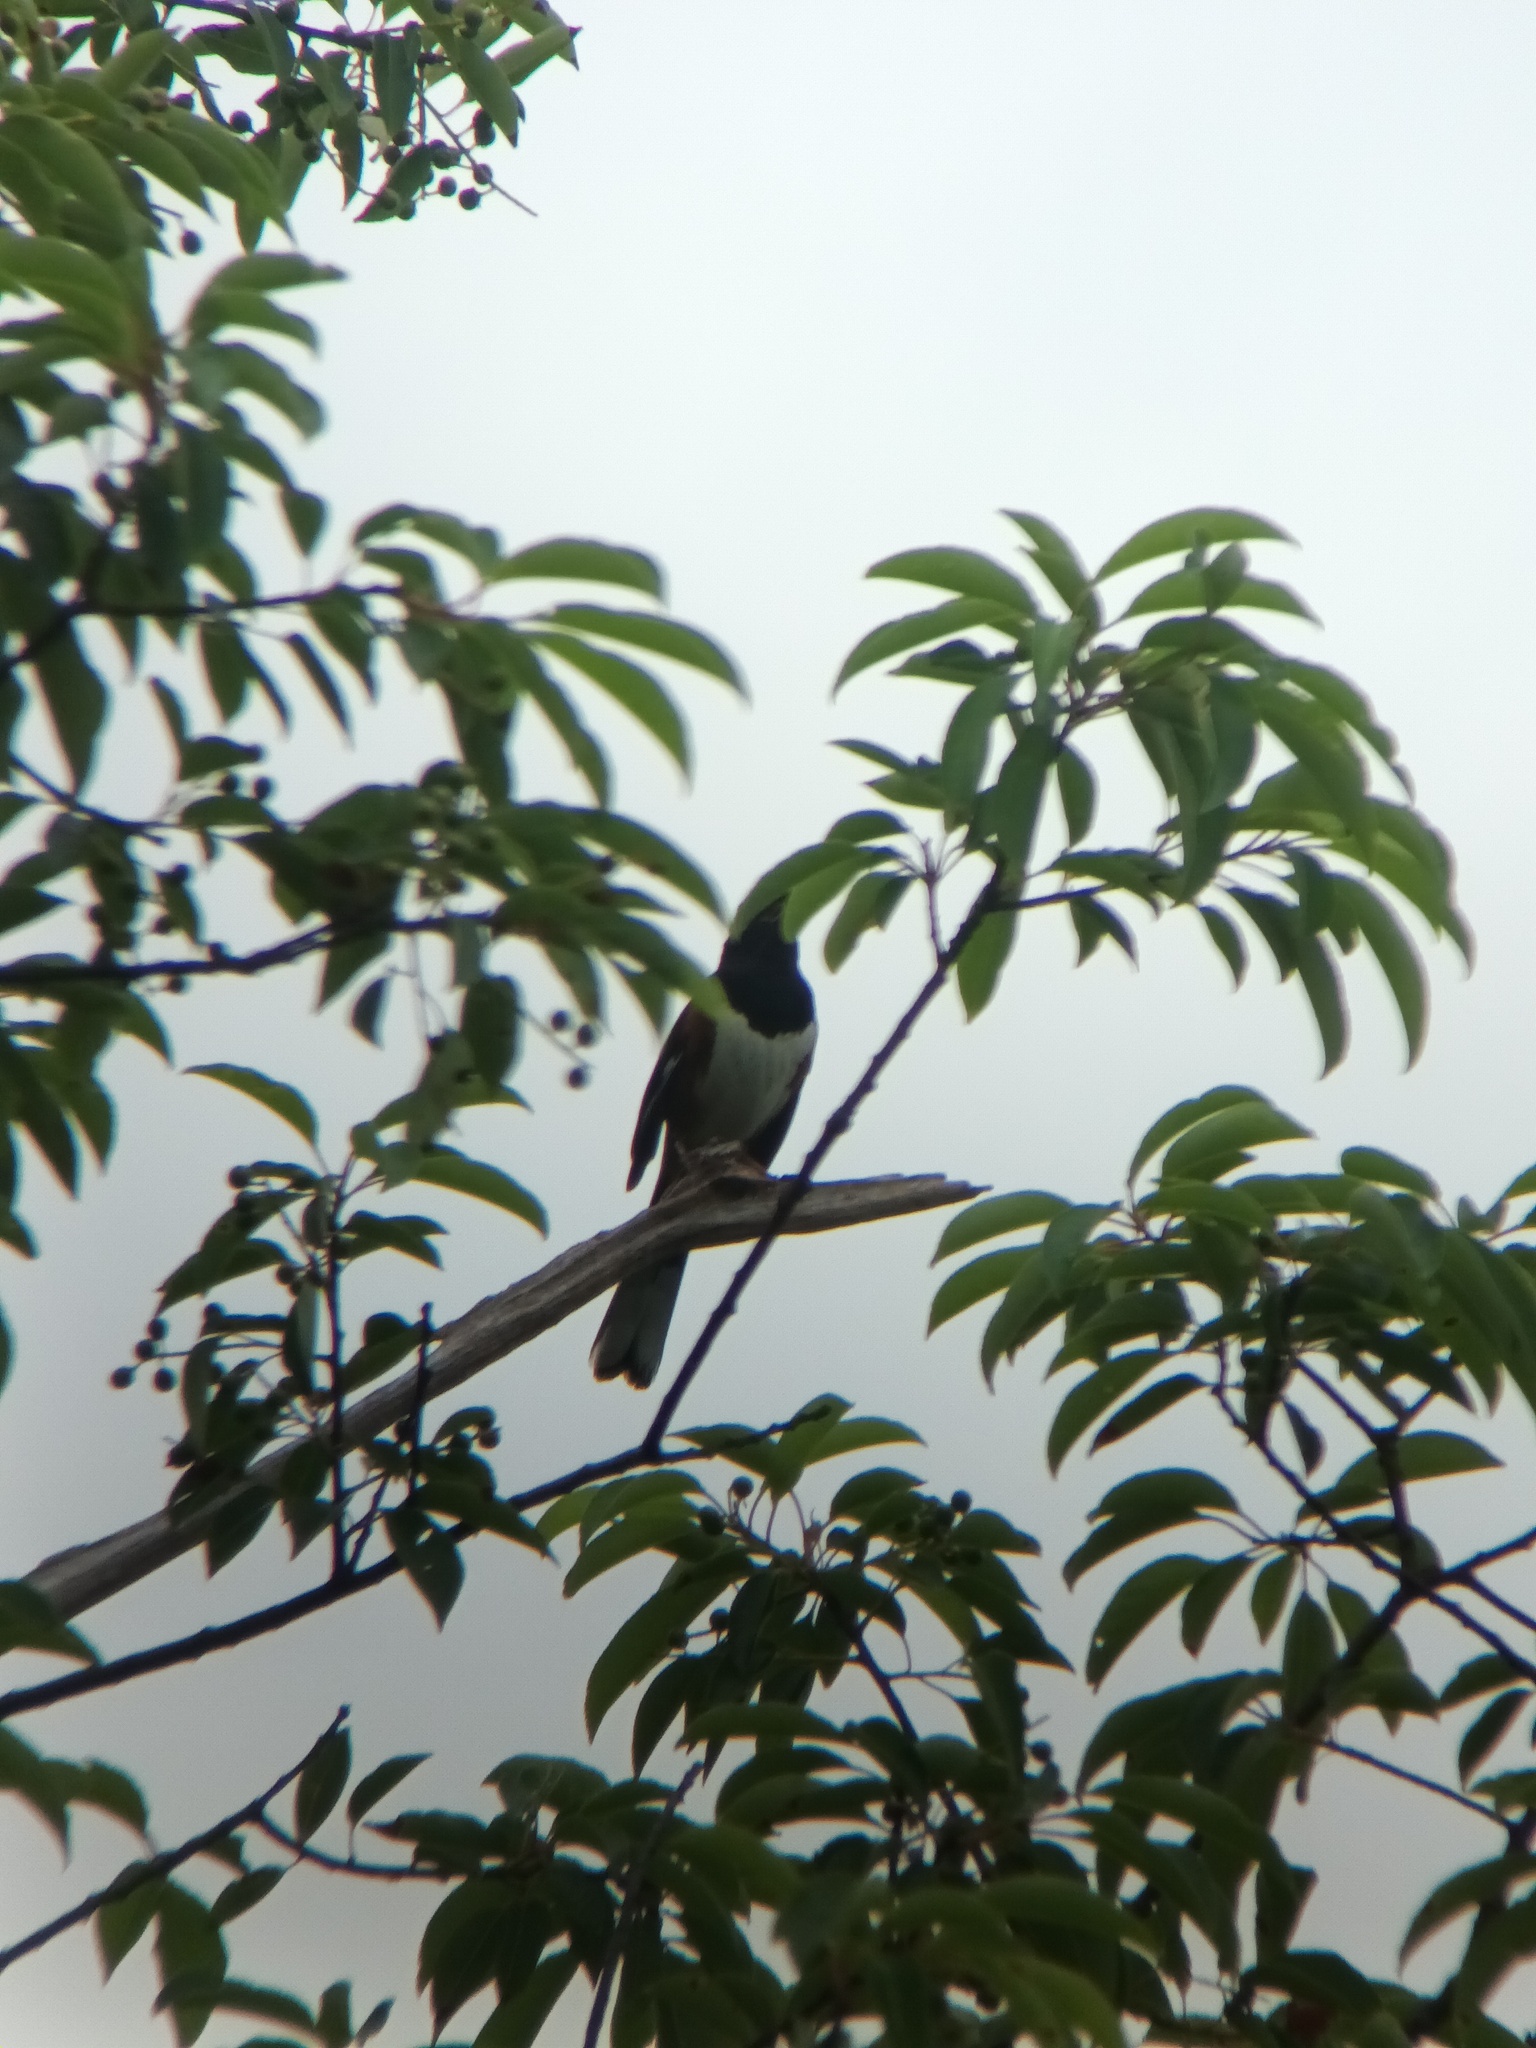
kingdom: Animalia
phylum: Chordata
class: Aves
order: Passeriformes
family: Passerellidae
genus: Pipilo
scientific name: Pipilo erythrophthalmus
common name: Eastern towhee
